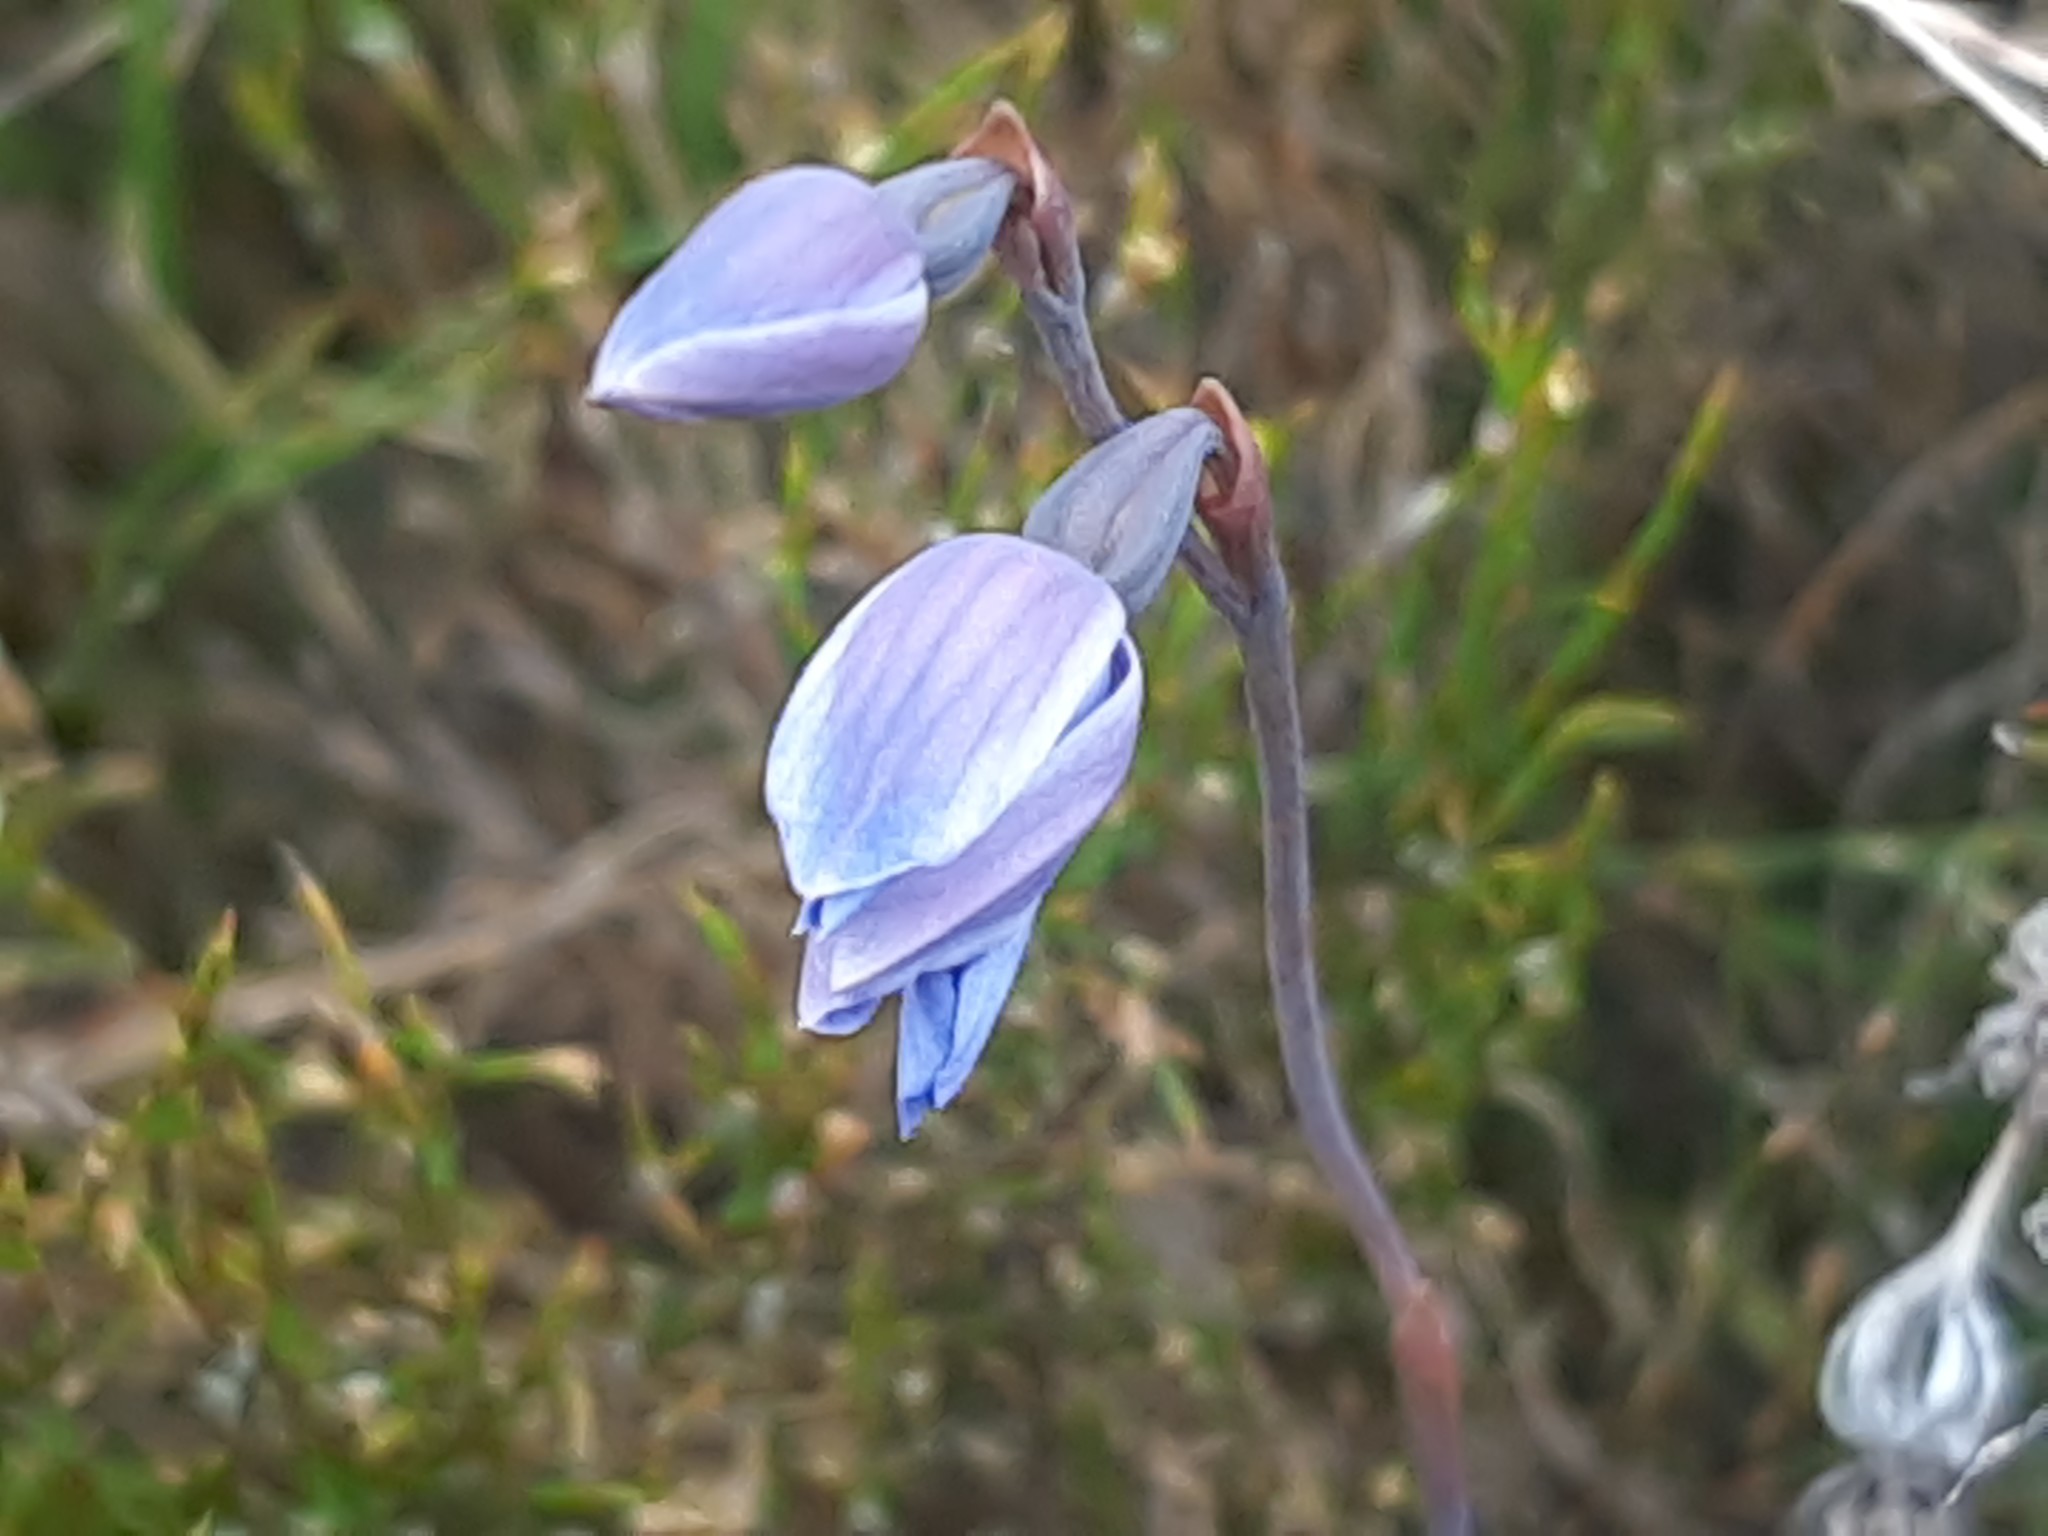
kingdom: Plantae
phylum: Tracheophyta
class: Liliopsida
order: Asparagales
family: Orchidaceae
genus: Thelymitra
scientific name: Thelymitra cyanea
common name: Blue sun-orchid
